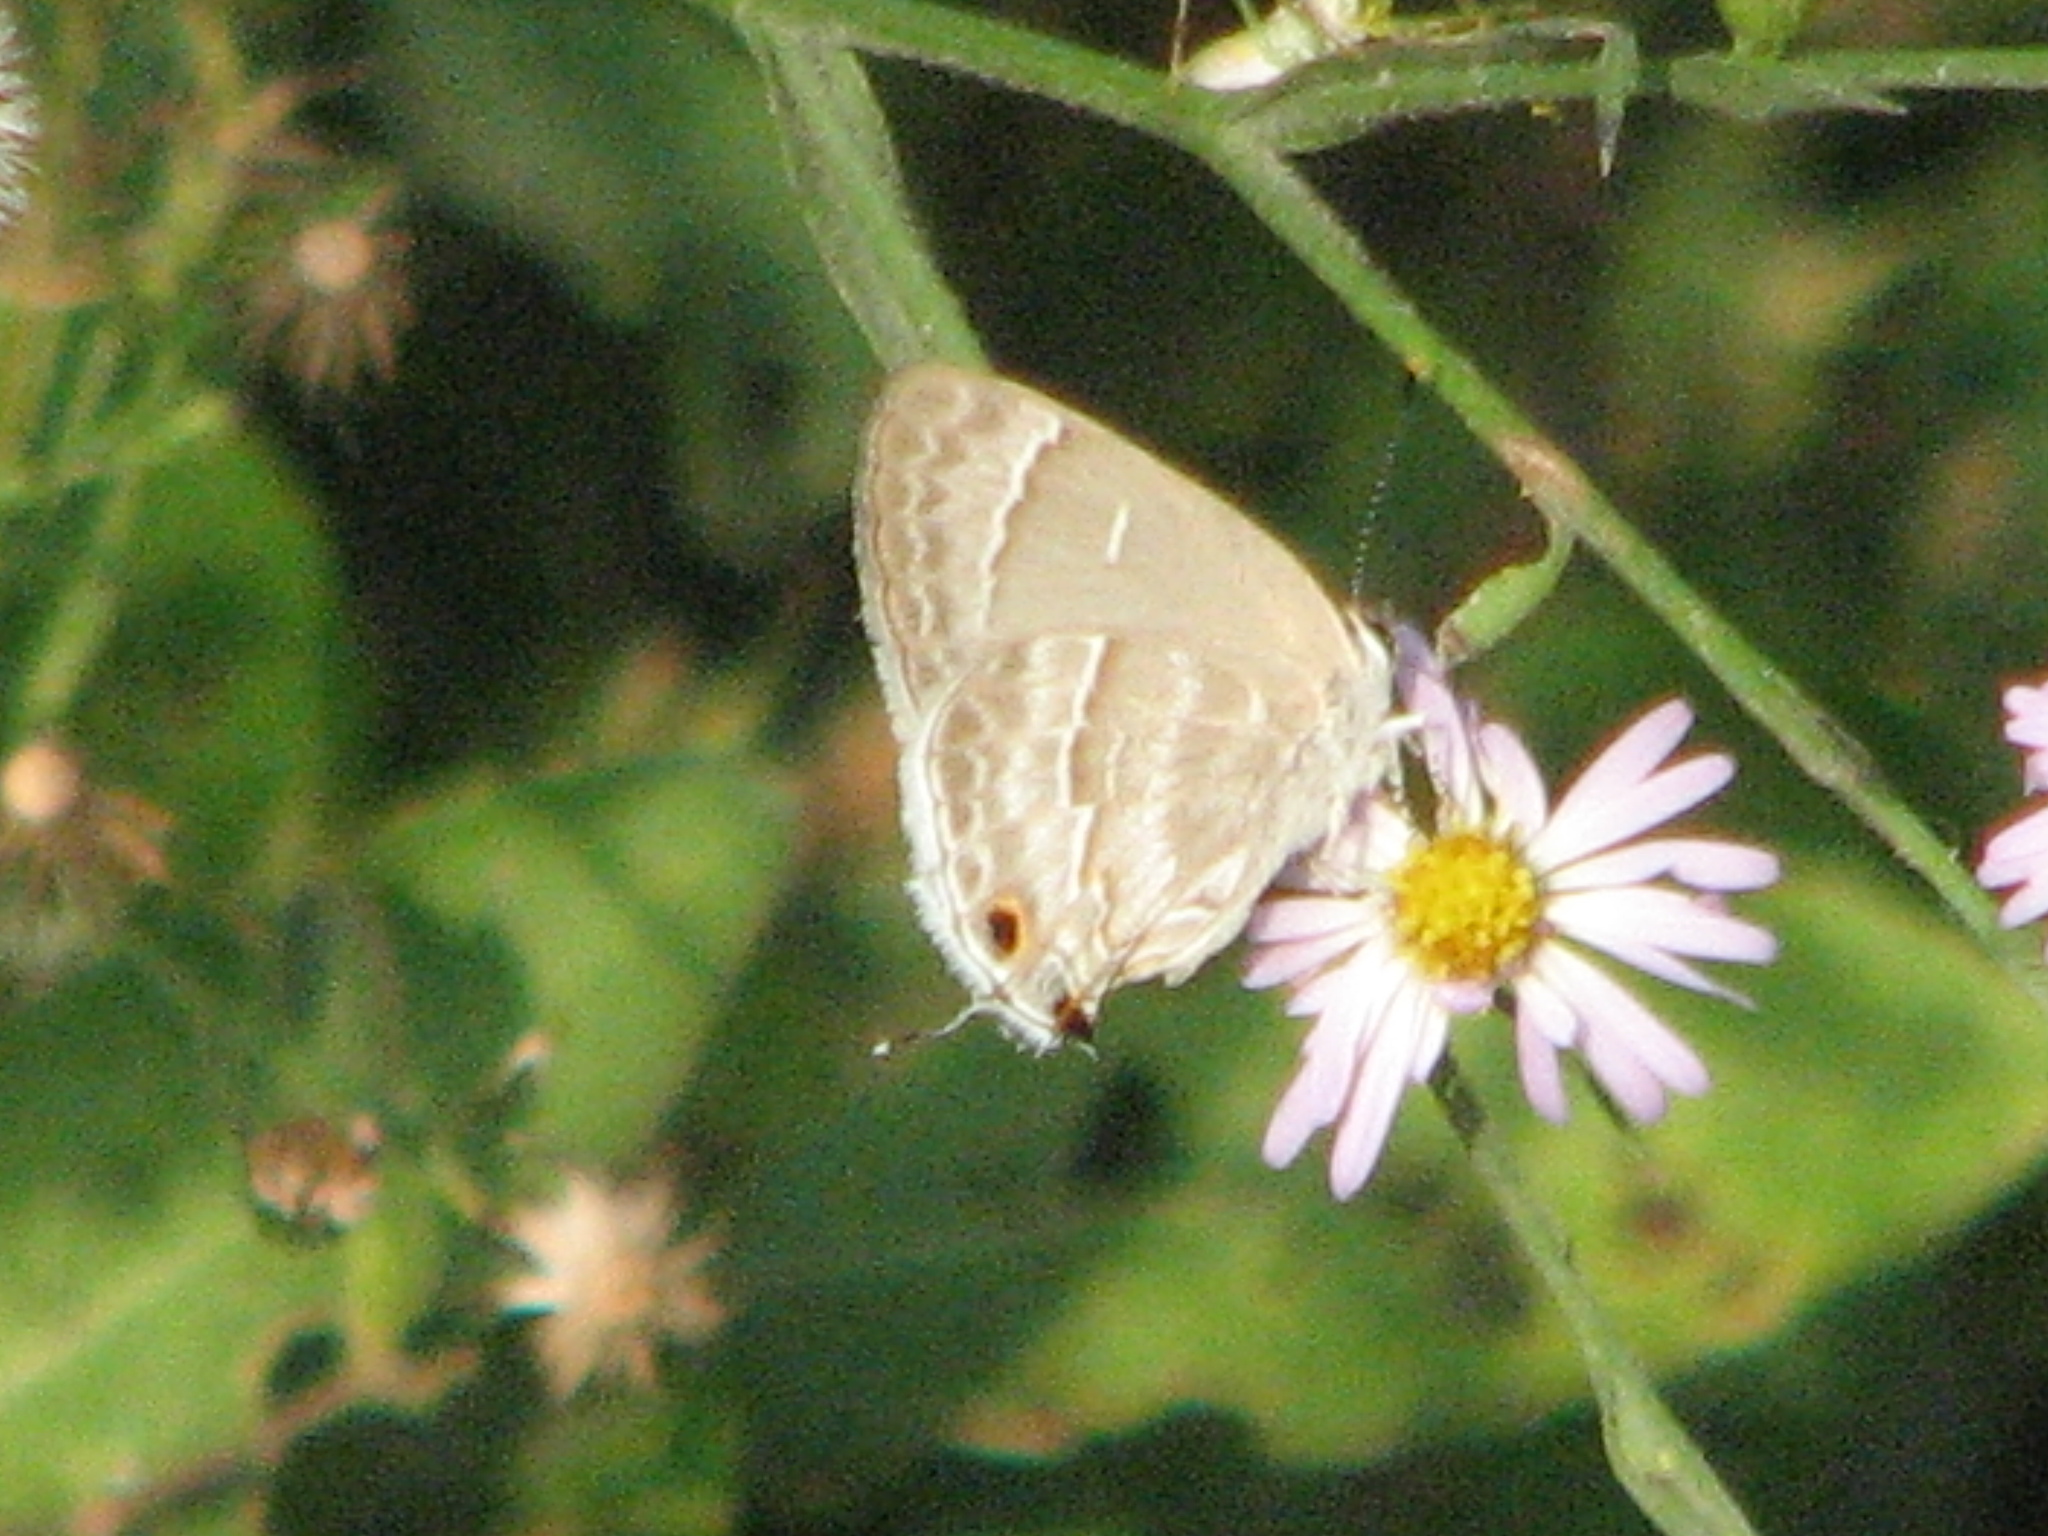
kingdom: Animalia
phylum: Arthropoda
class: Insecta
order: Lepidoptera
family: Lycaenidae
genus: Thecla
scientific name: Thecla yojoa
